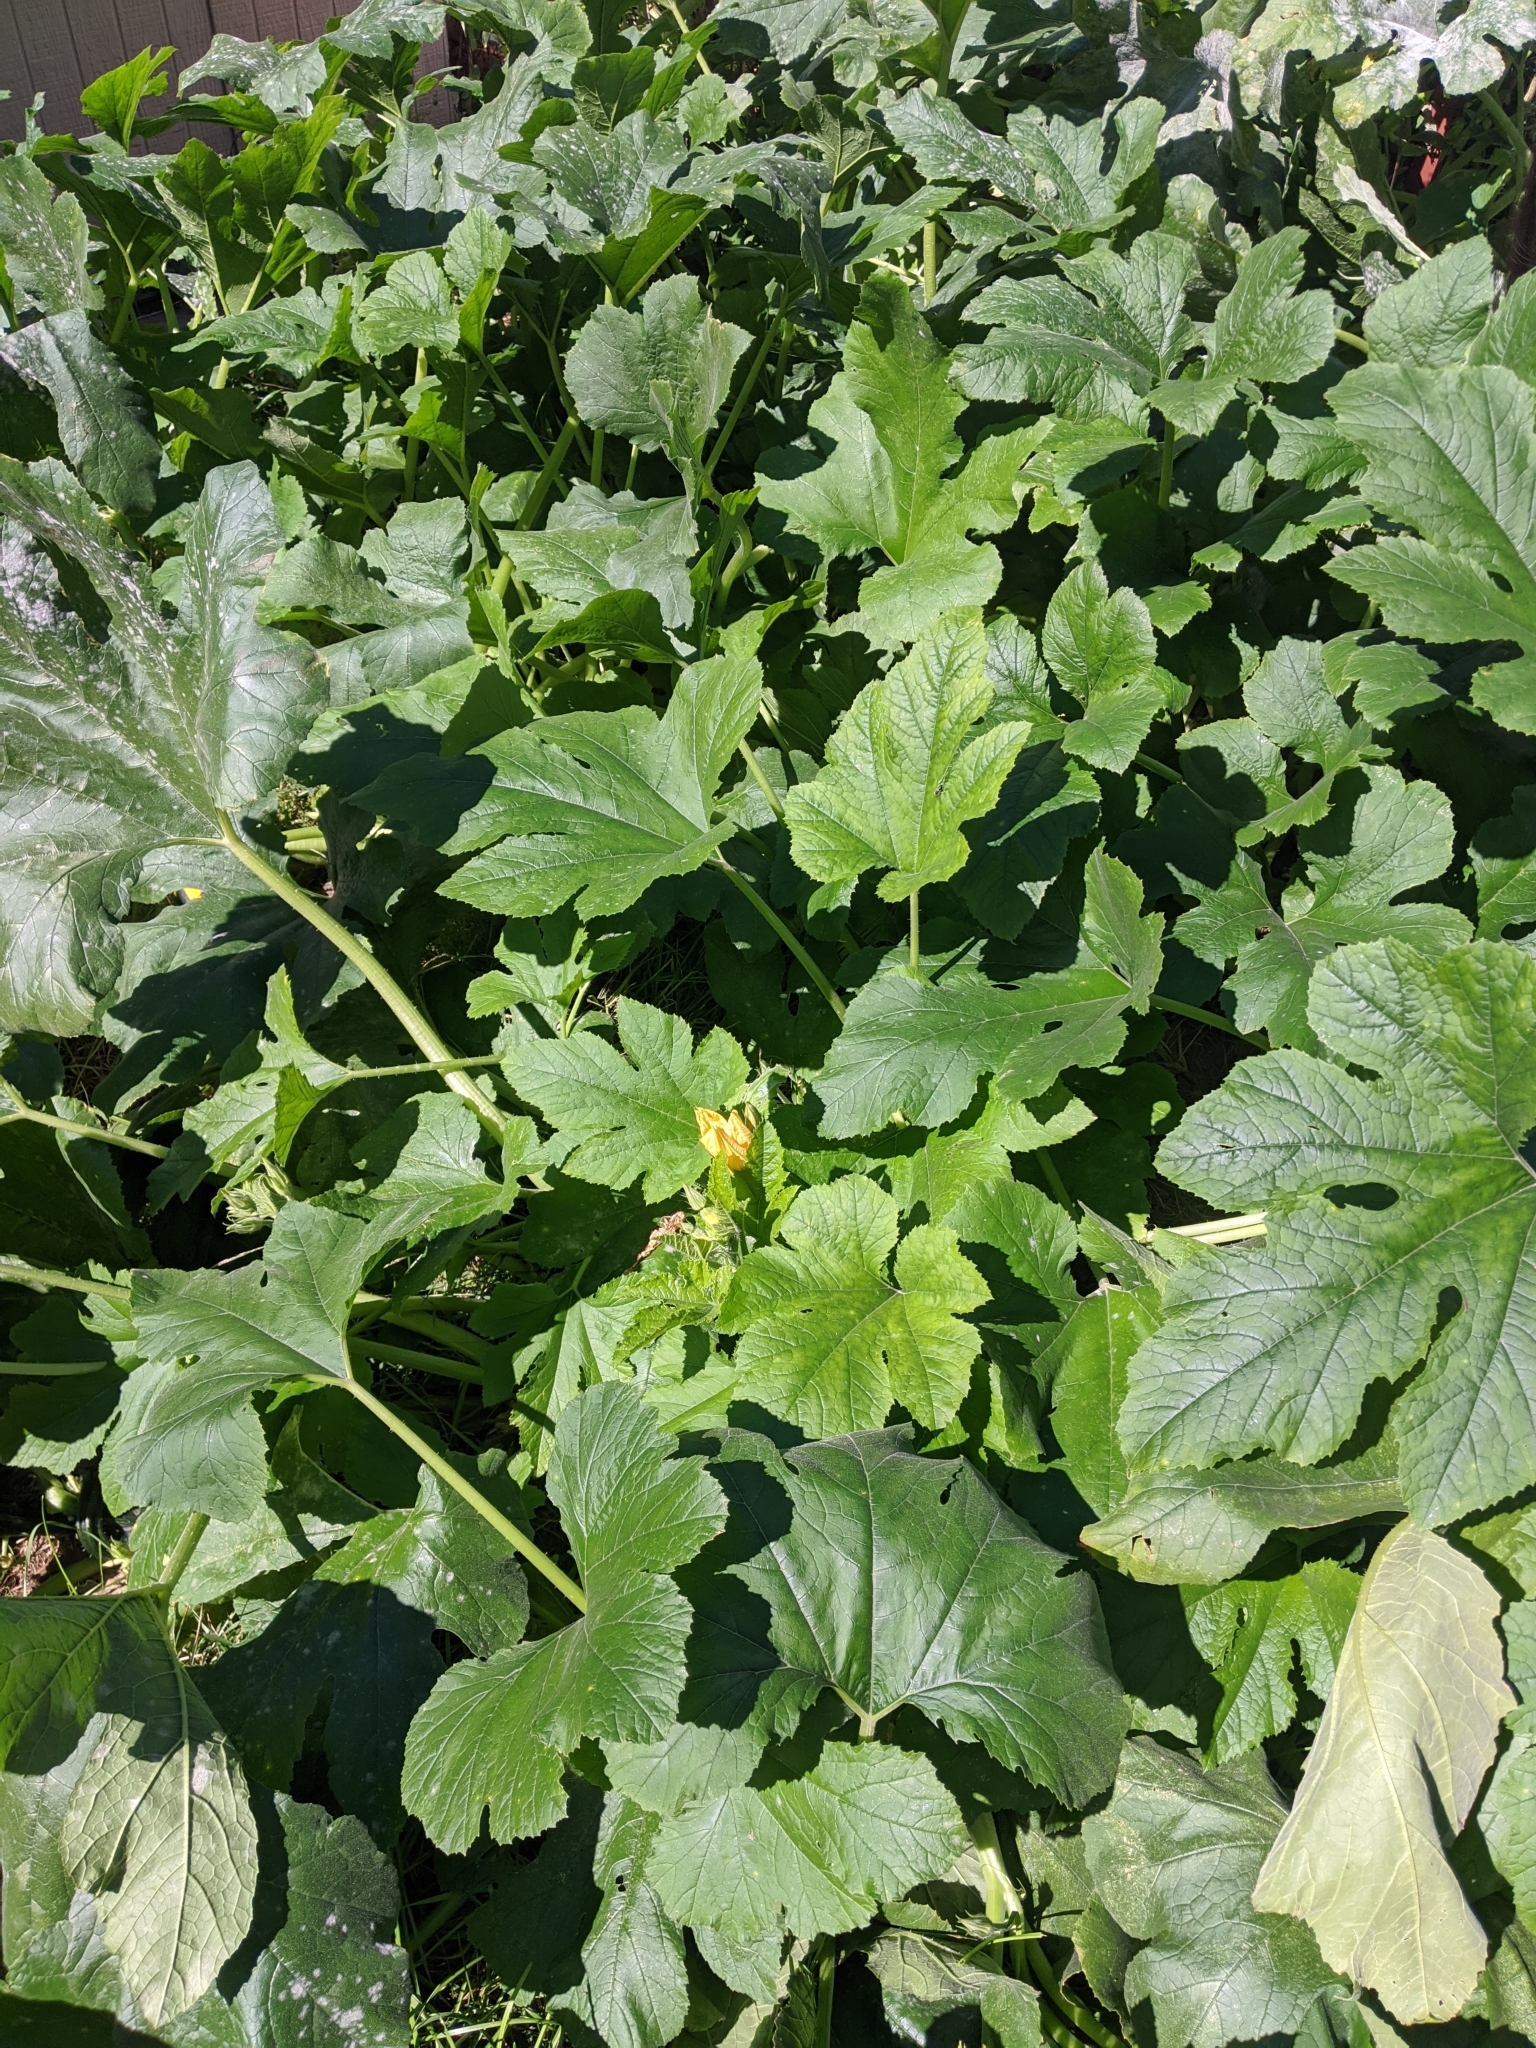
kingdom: Plantae
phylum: Tracheophyta
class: Magnoliopsida
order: Cucurbitales
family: Cucurbitaceae
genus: Cucurbita
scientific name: Cucurbita pepo
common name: Marrow
